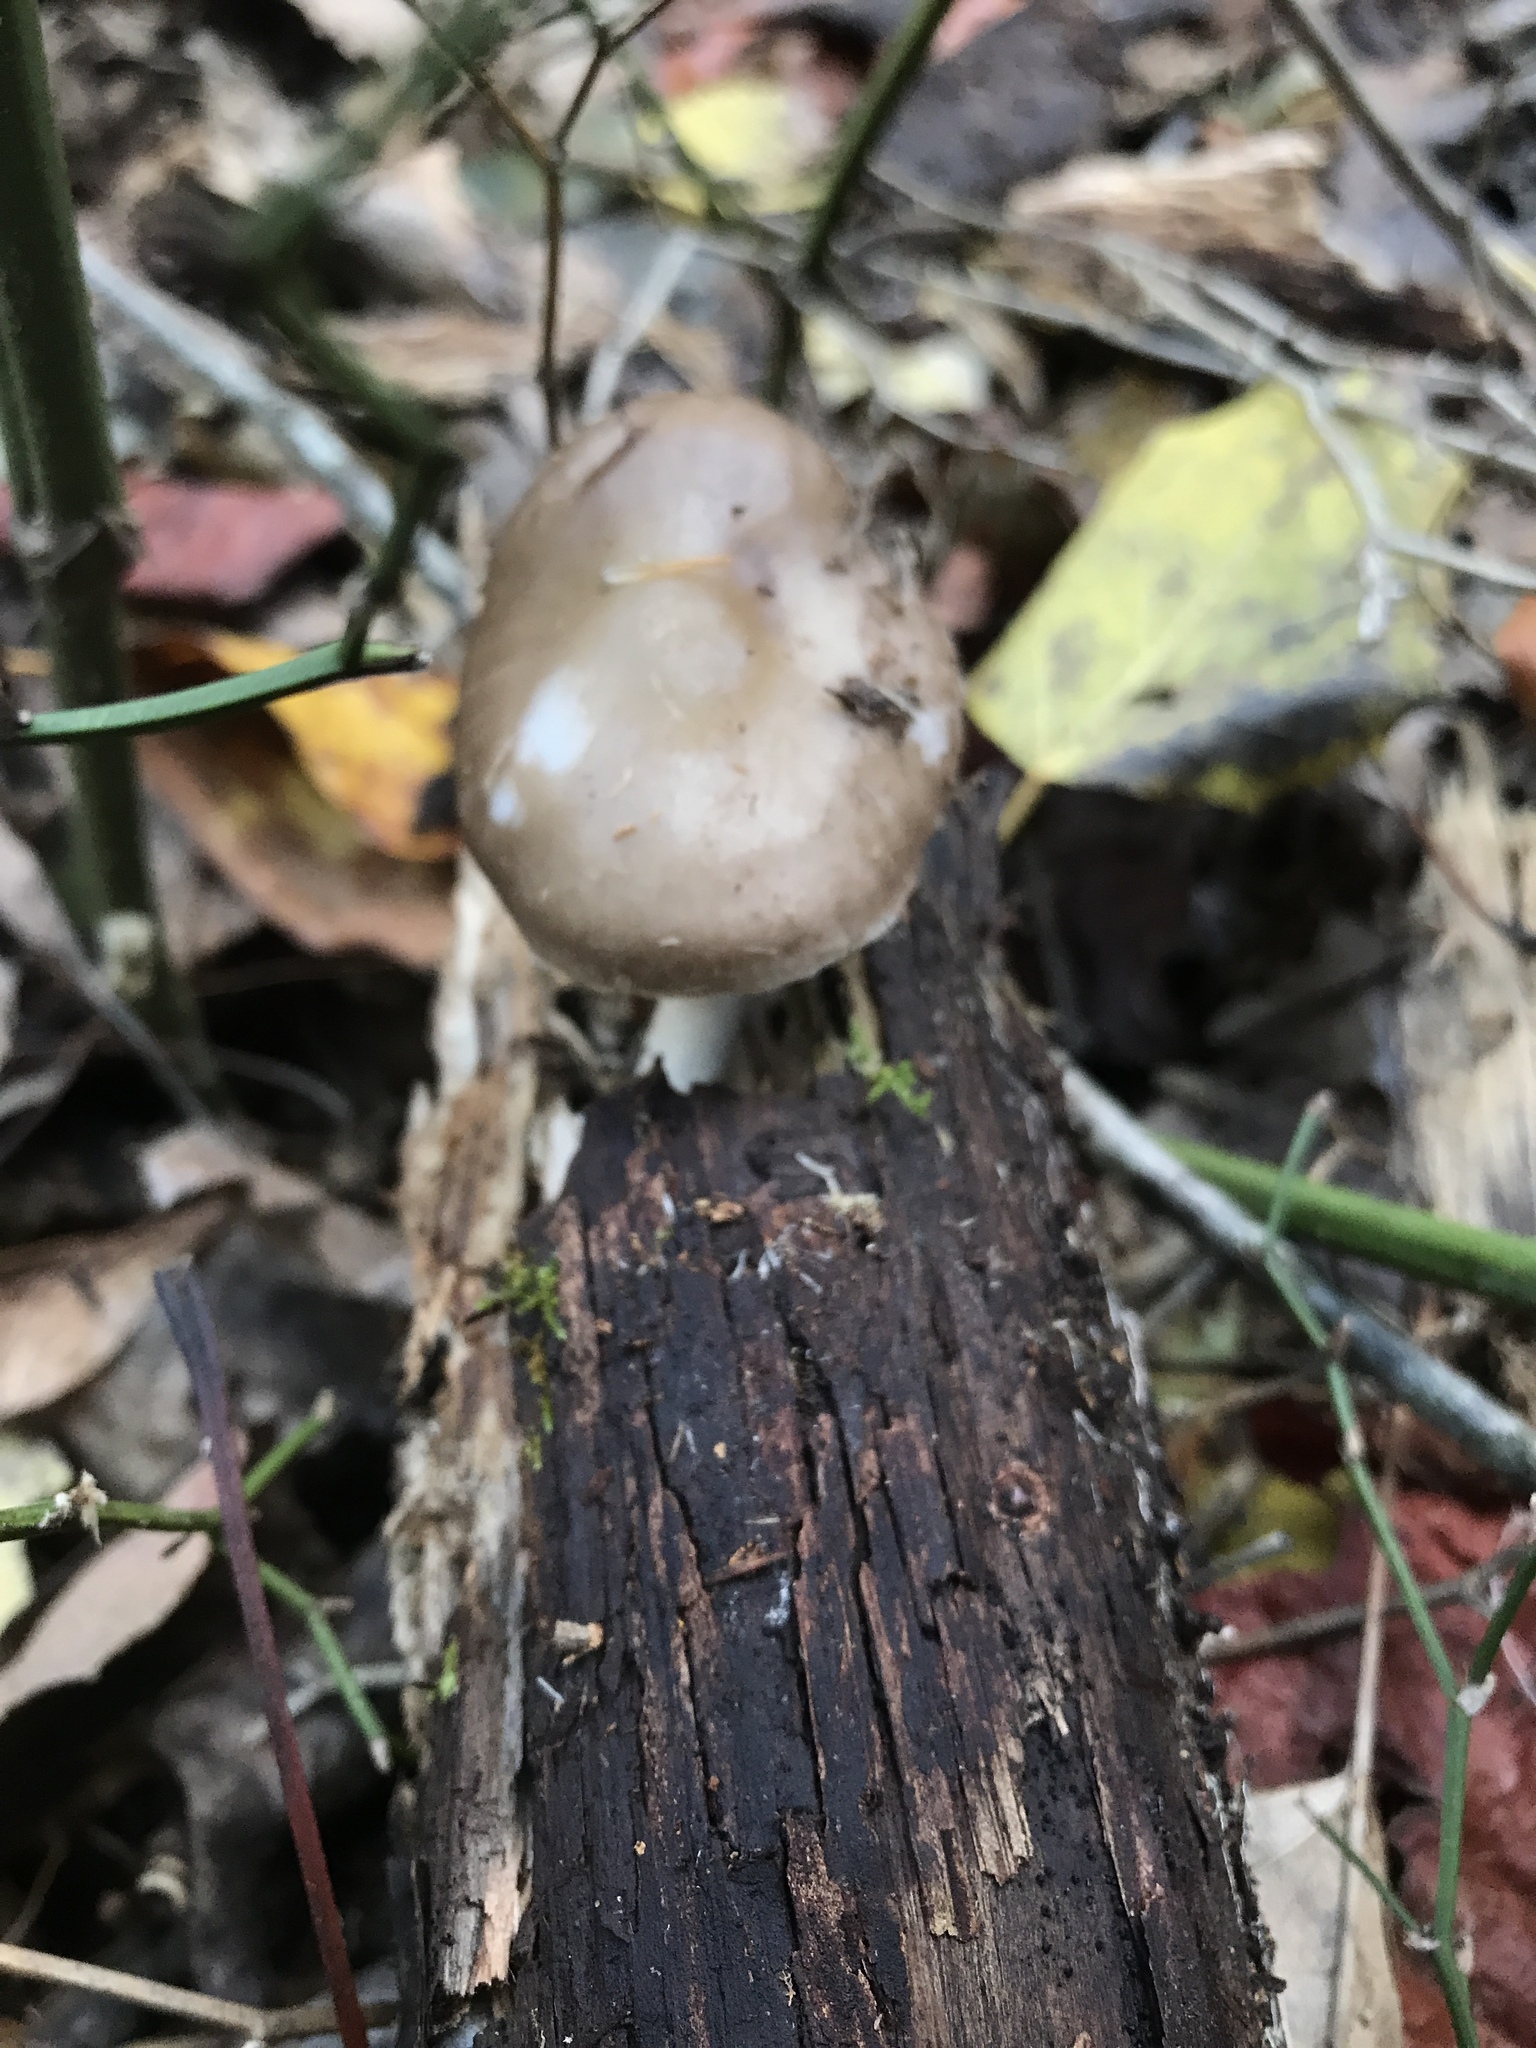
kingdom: Fungi
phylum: Basidiomycota
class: Agaricomycetes
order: Agaricales
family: Pluteaceae
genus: Pluteus
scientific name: Pluteus cervinus
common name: Deer shield
